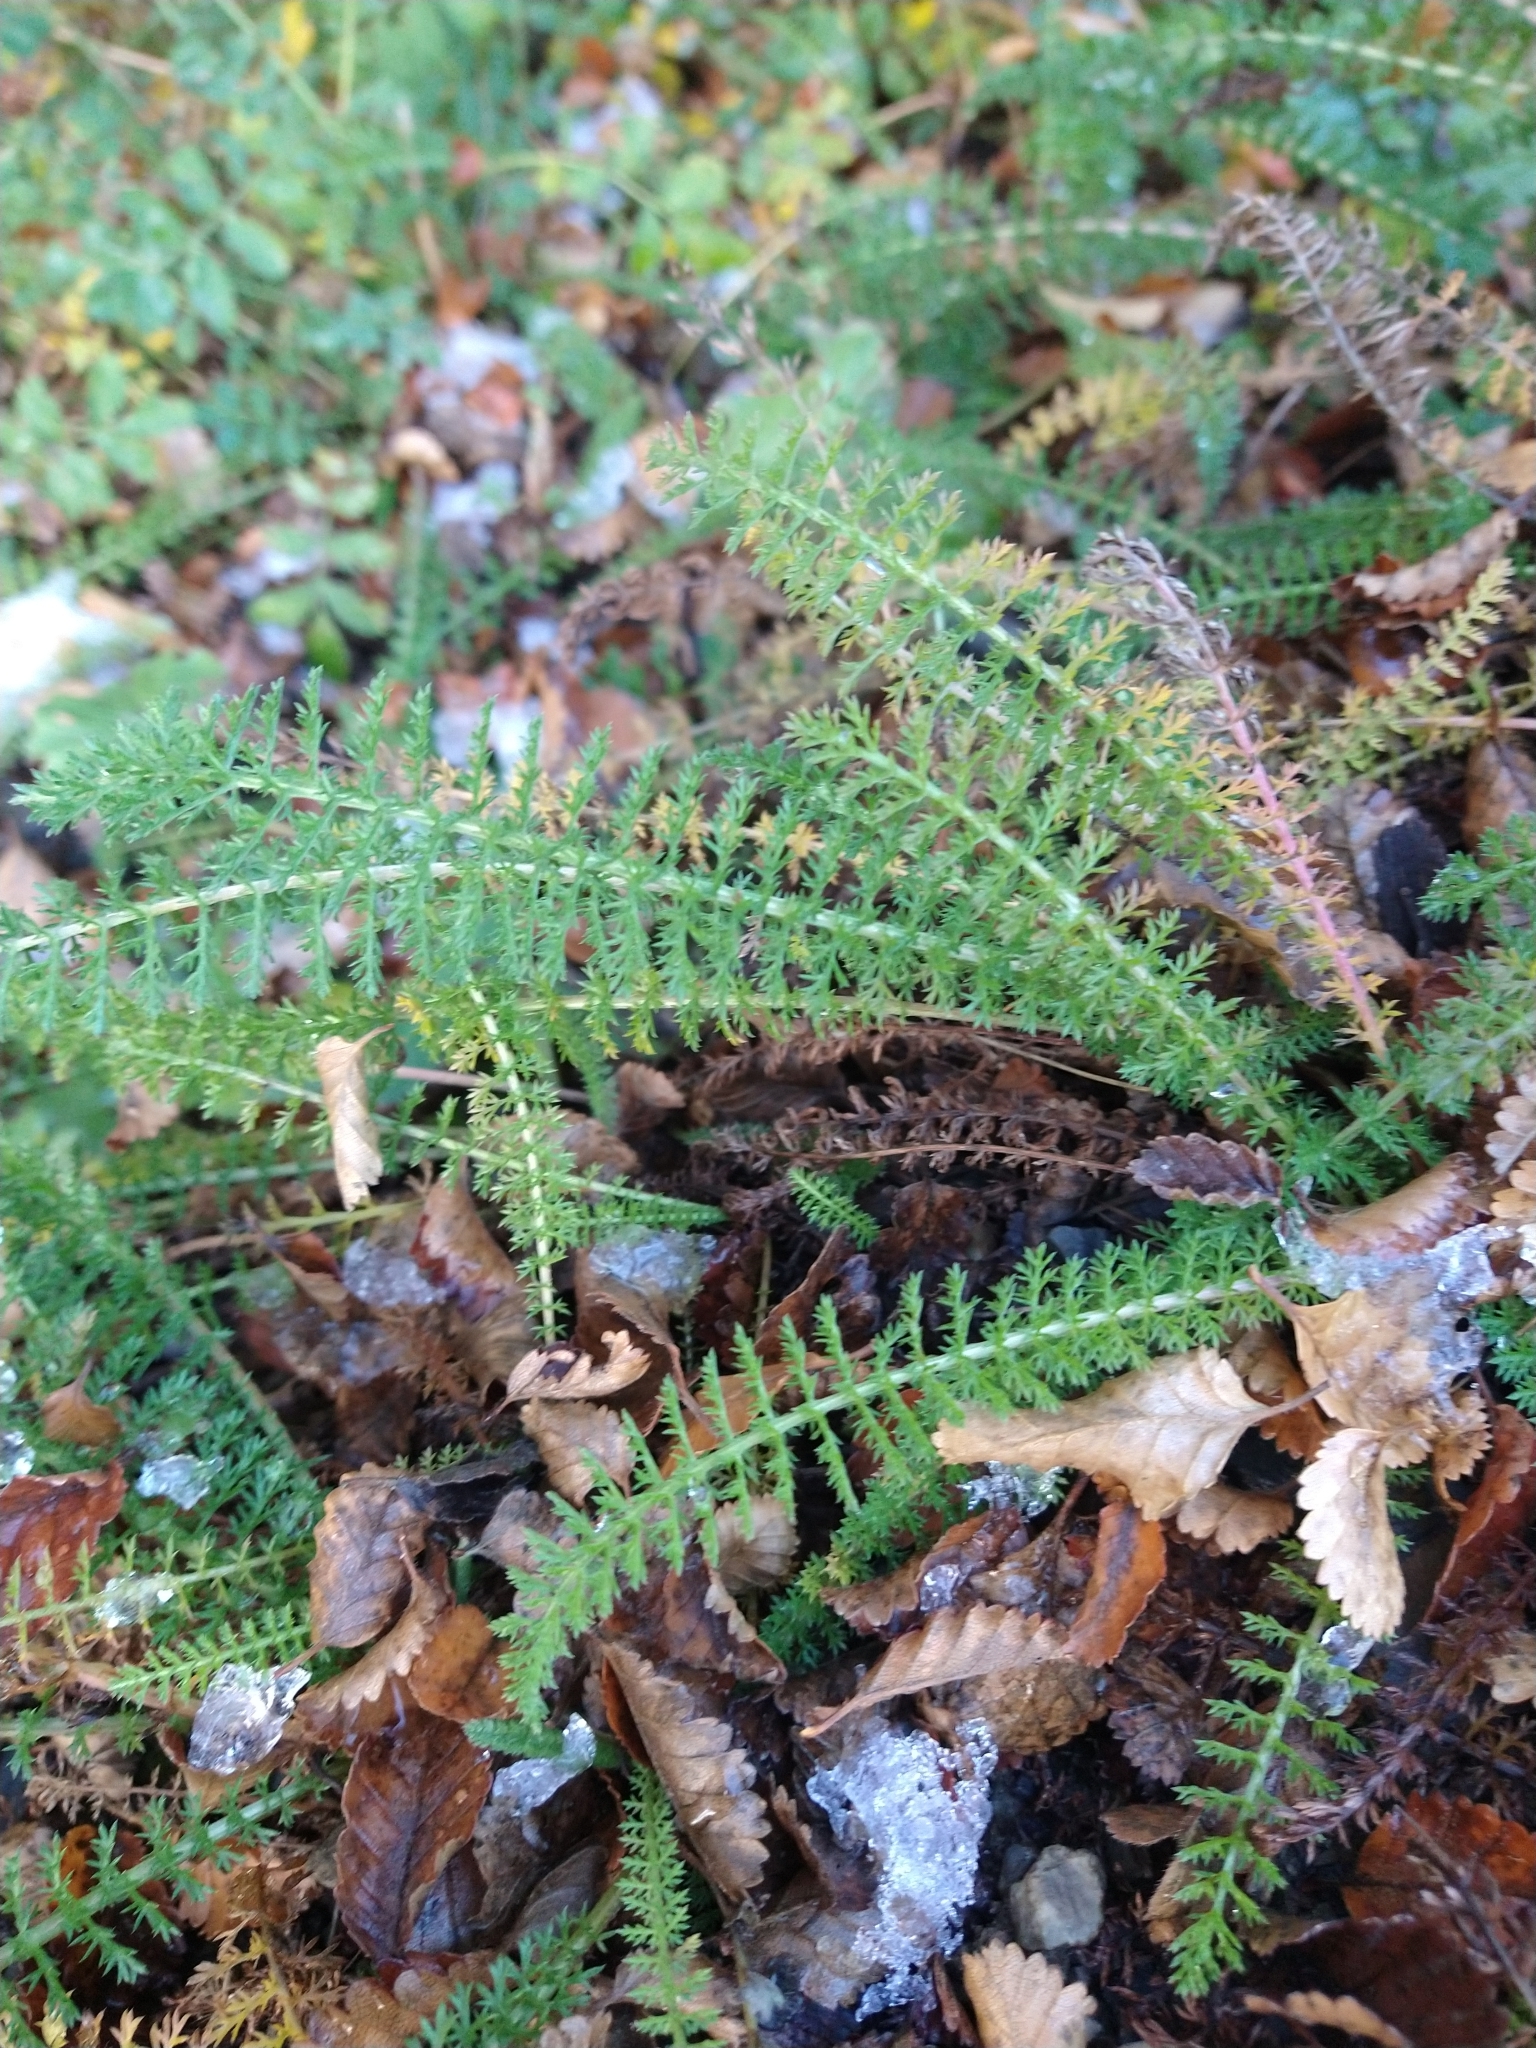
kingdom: Plantae
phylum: Tracheophyta
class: Magnoliopsida
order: Asterales
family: Asteraceae
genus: Achillea
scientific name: Achillea millefolium
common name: Yarrow
